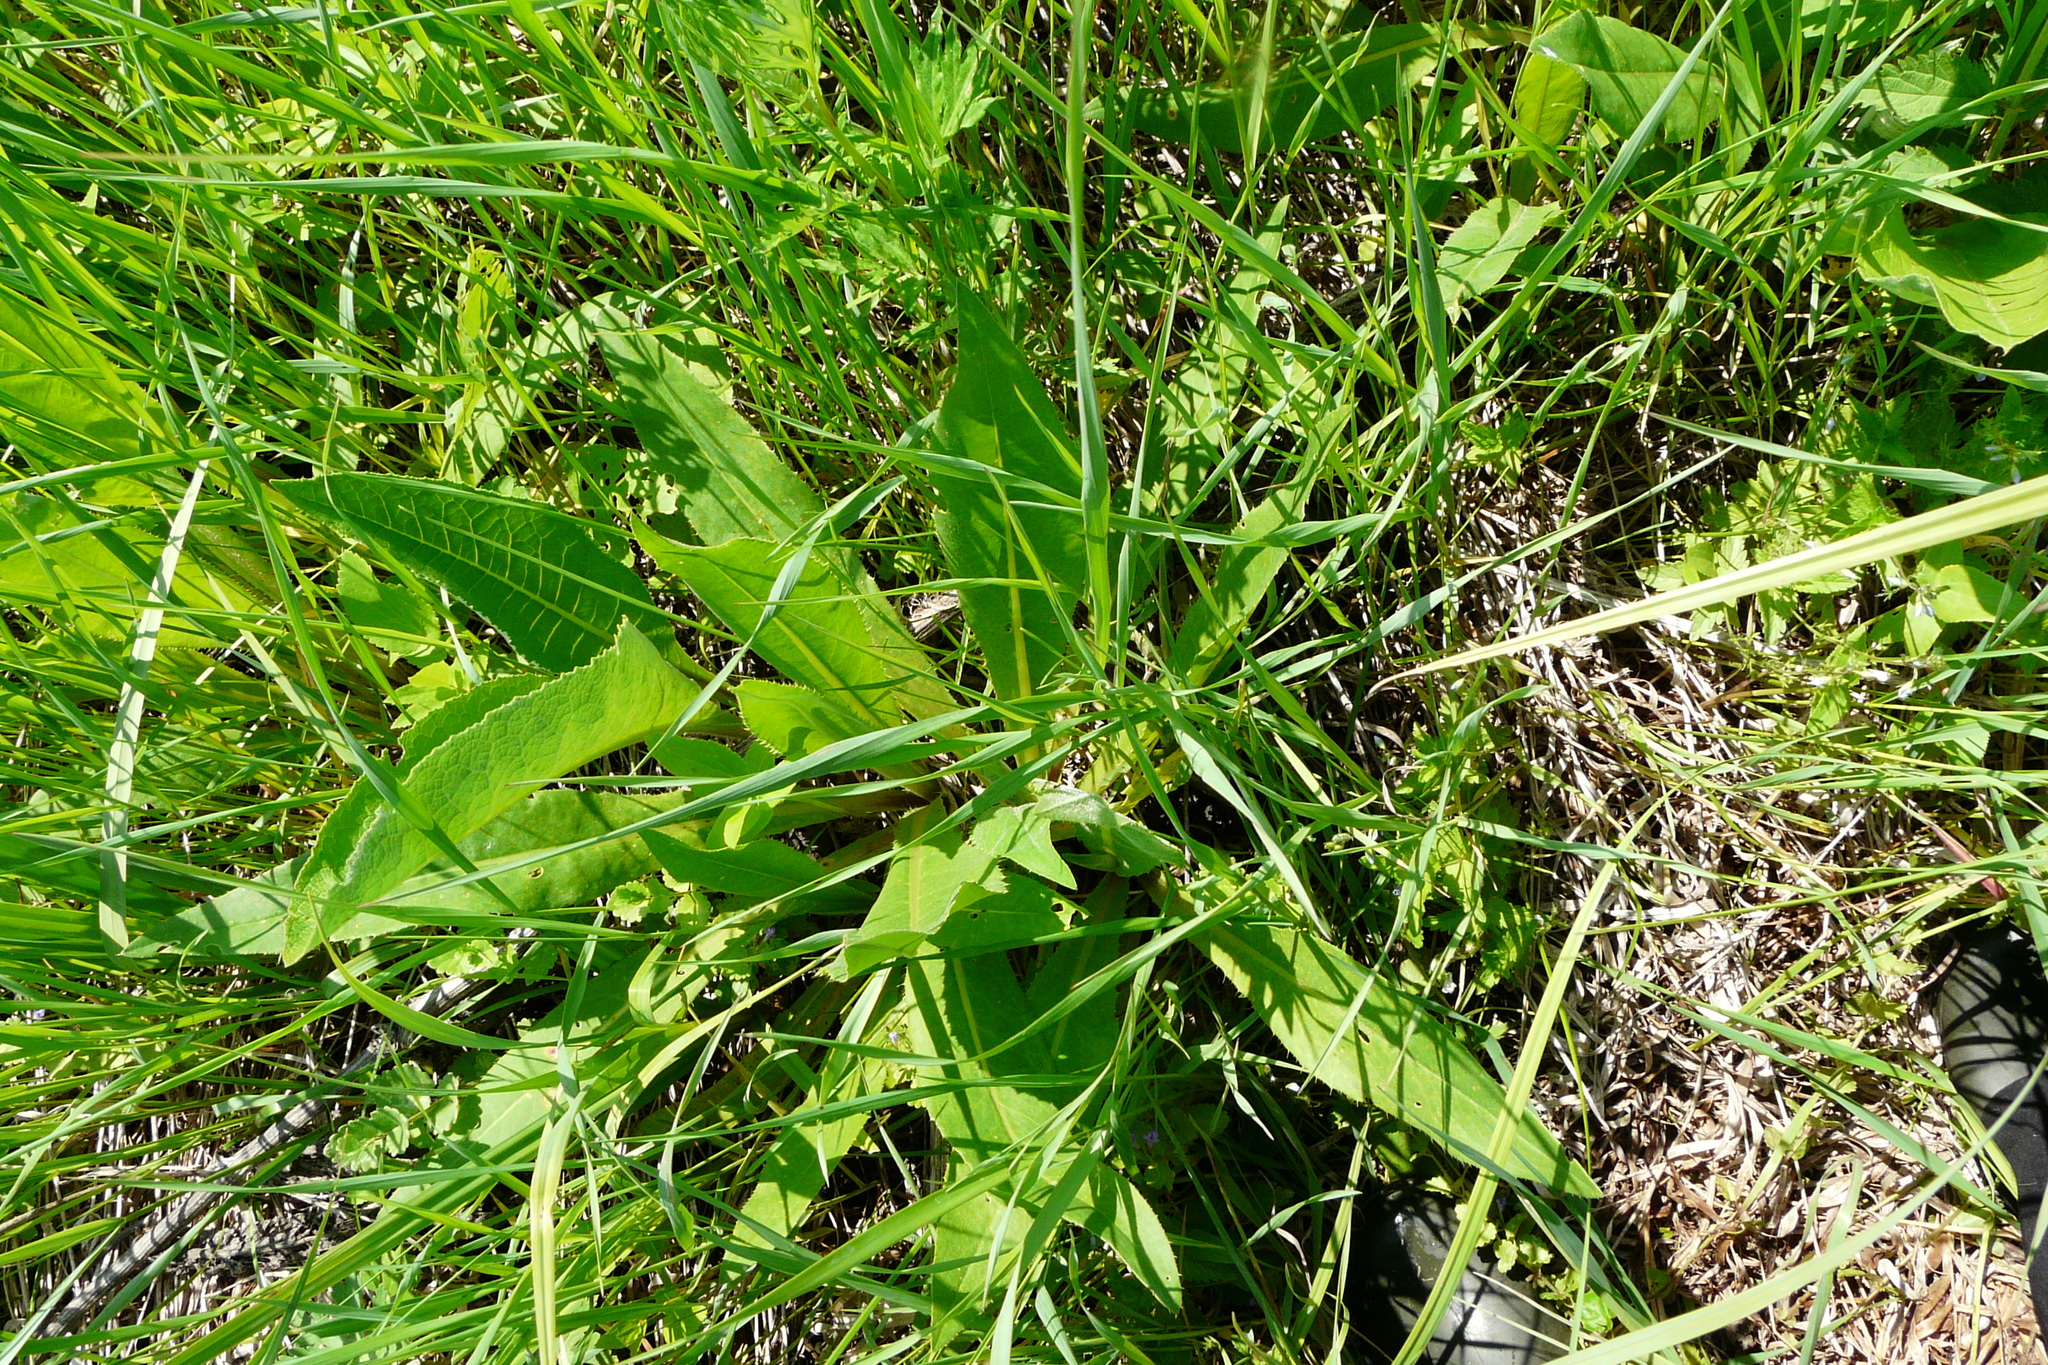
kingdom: Plantae
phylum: Tracheophyta
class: Magnoliopsida
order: Asterales
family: Asteraceae
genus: Cirsium
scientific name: Cirsium canum
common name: Queen anne's thistle
